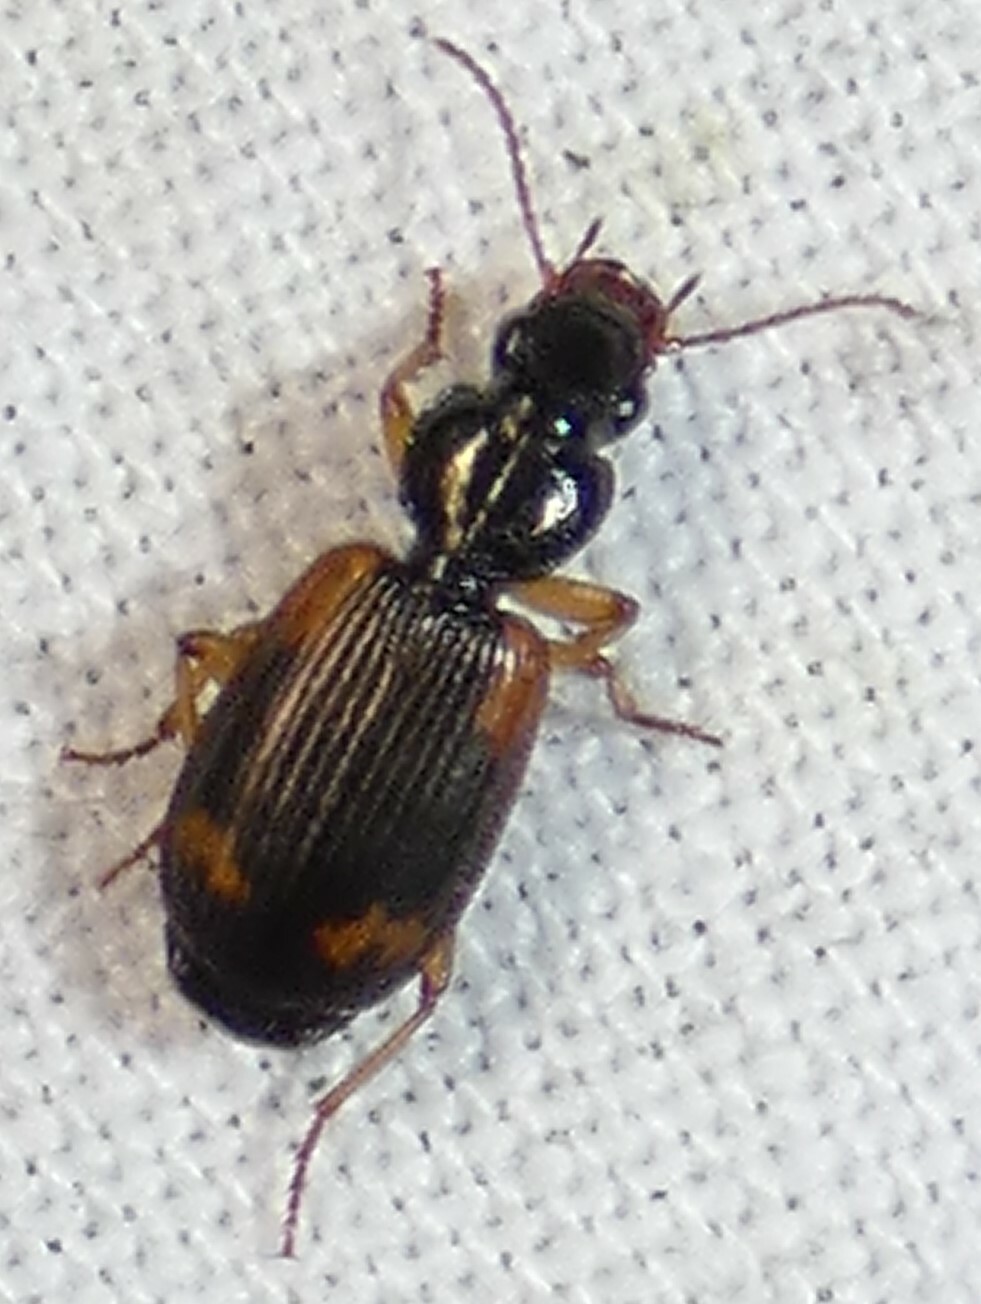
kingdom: Animalia
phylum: Arthropoda
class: Insecta
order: Coleoptera
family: Carabidae
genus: Apenes
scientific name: Apenes sinuata
